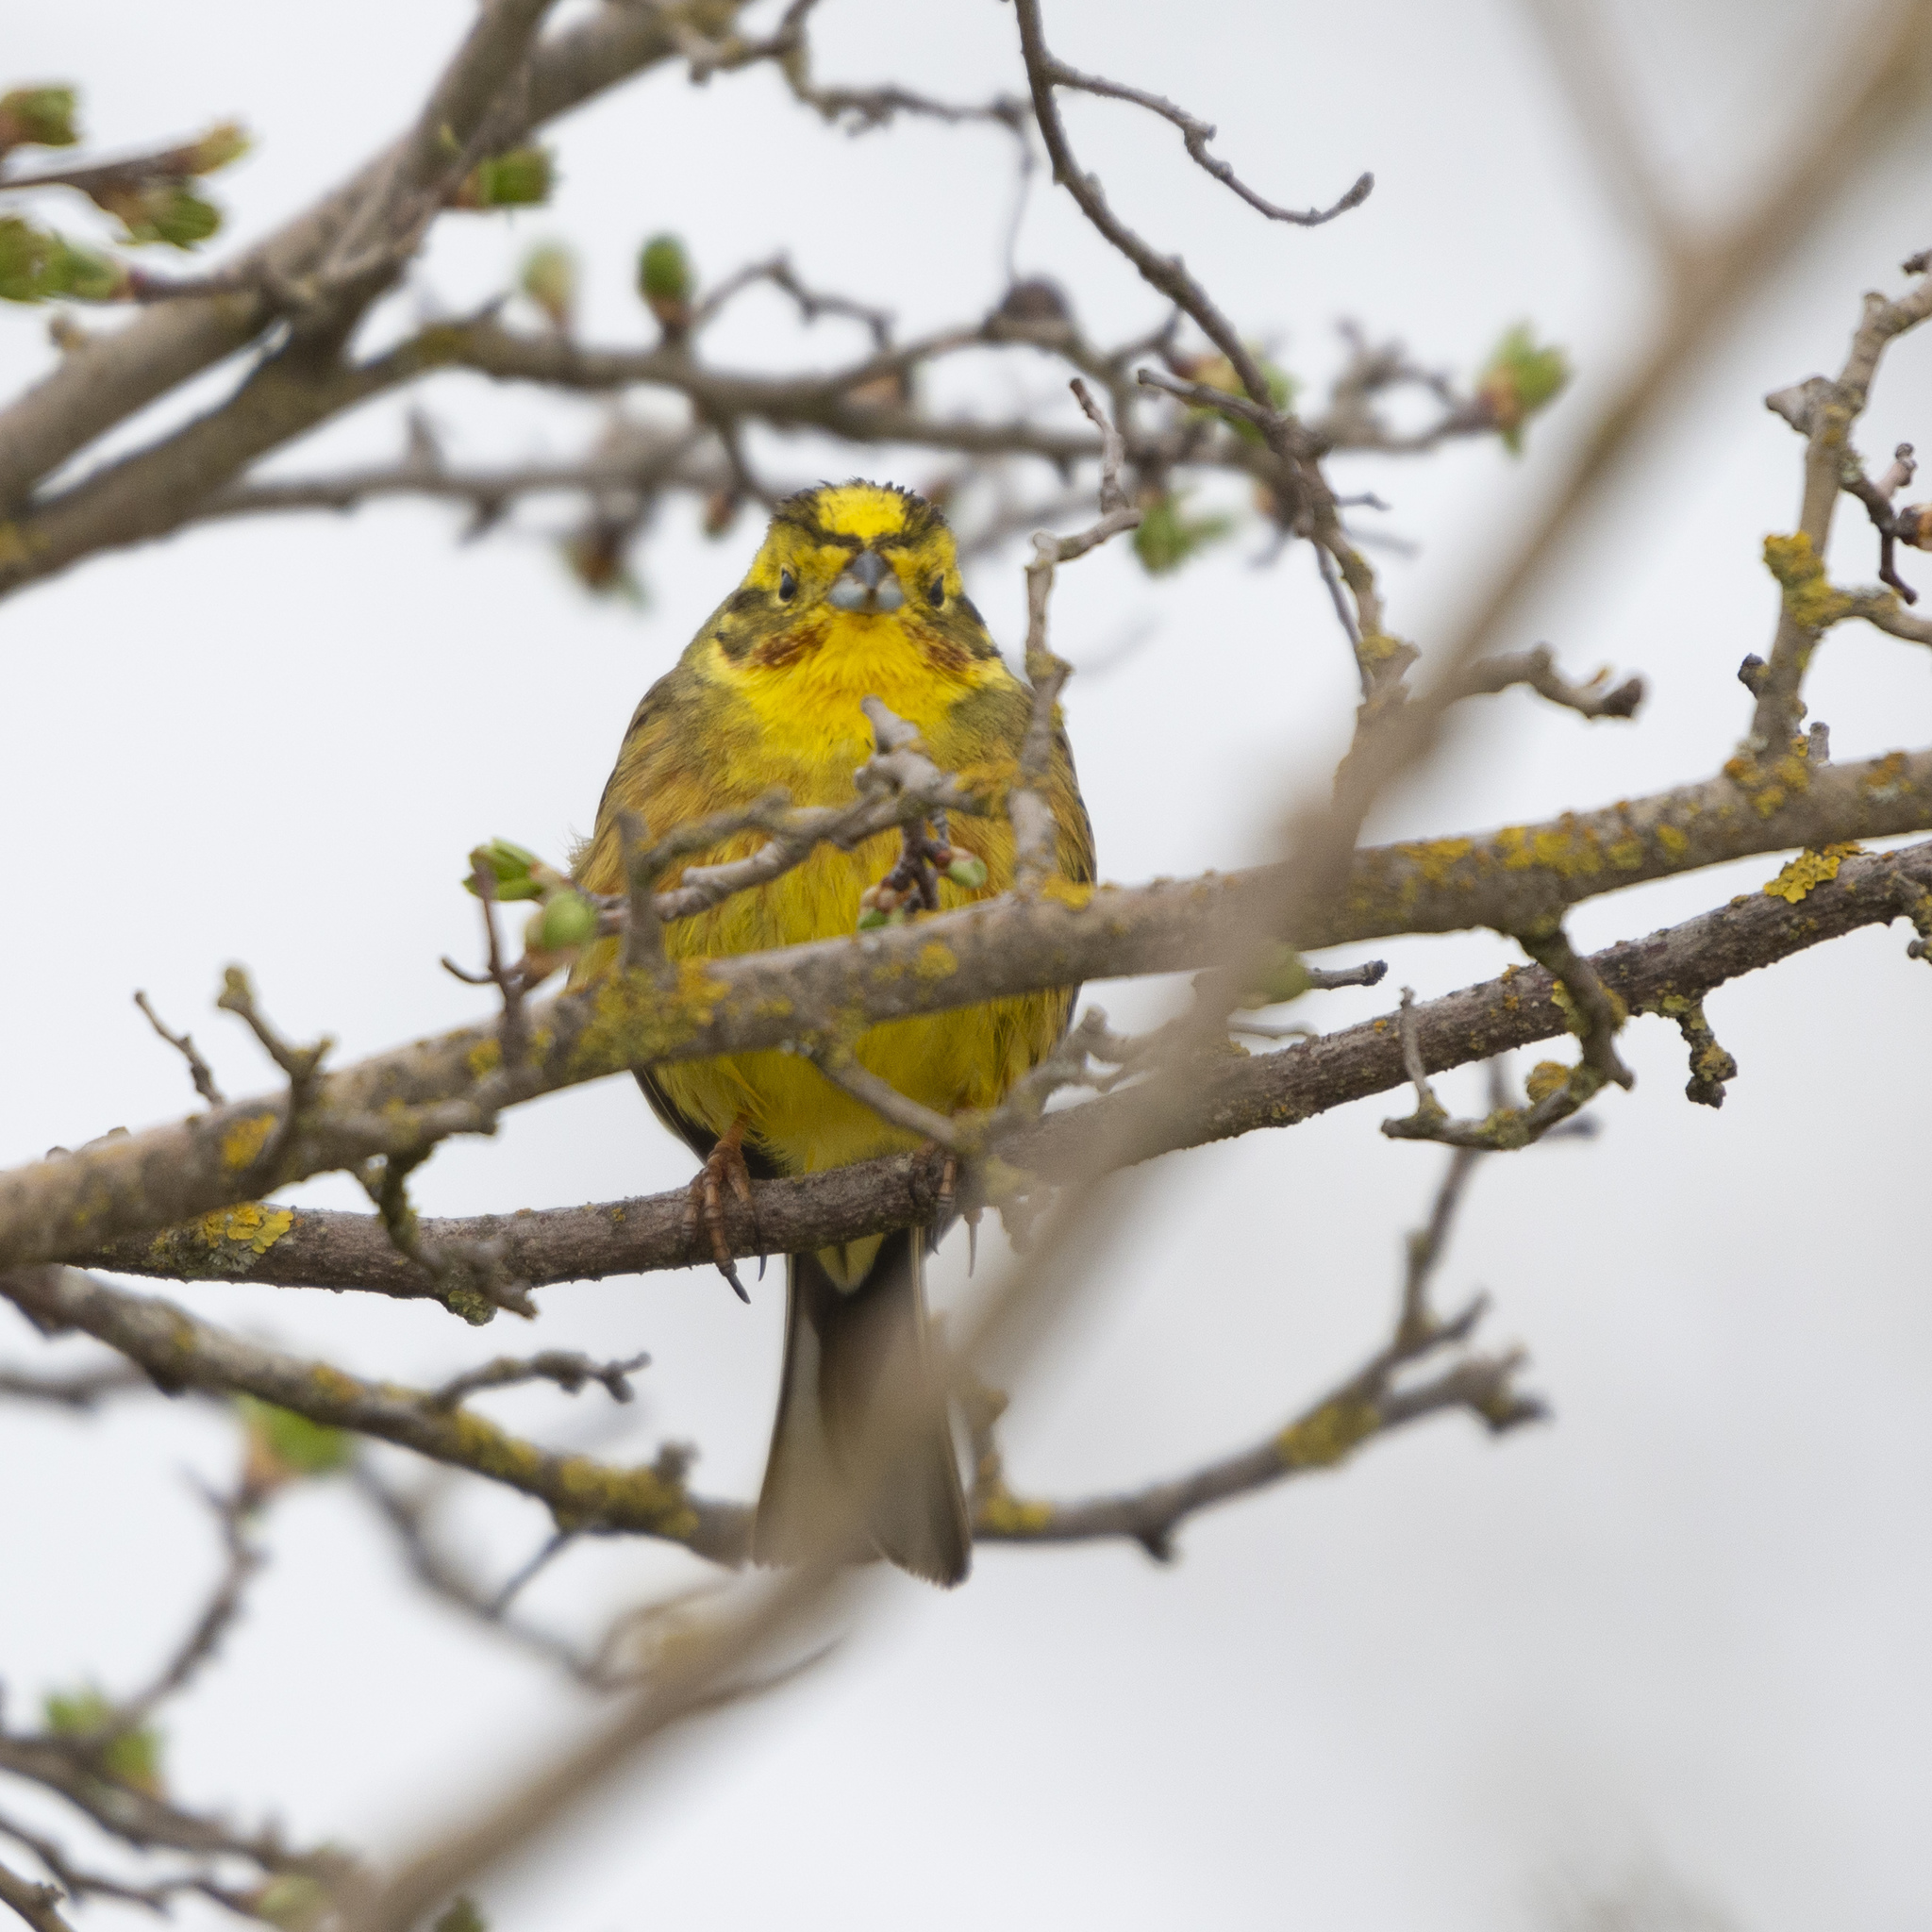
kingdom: Animalia
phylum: Chordata
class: Aves
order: Passeriformes
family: Emberizidae
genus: Emberiza
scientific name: Emberiza citrinella
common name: Yellowhammer
